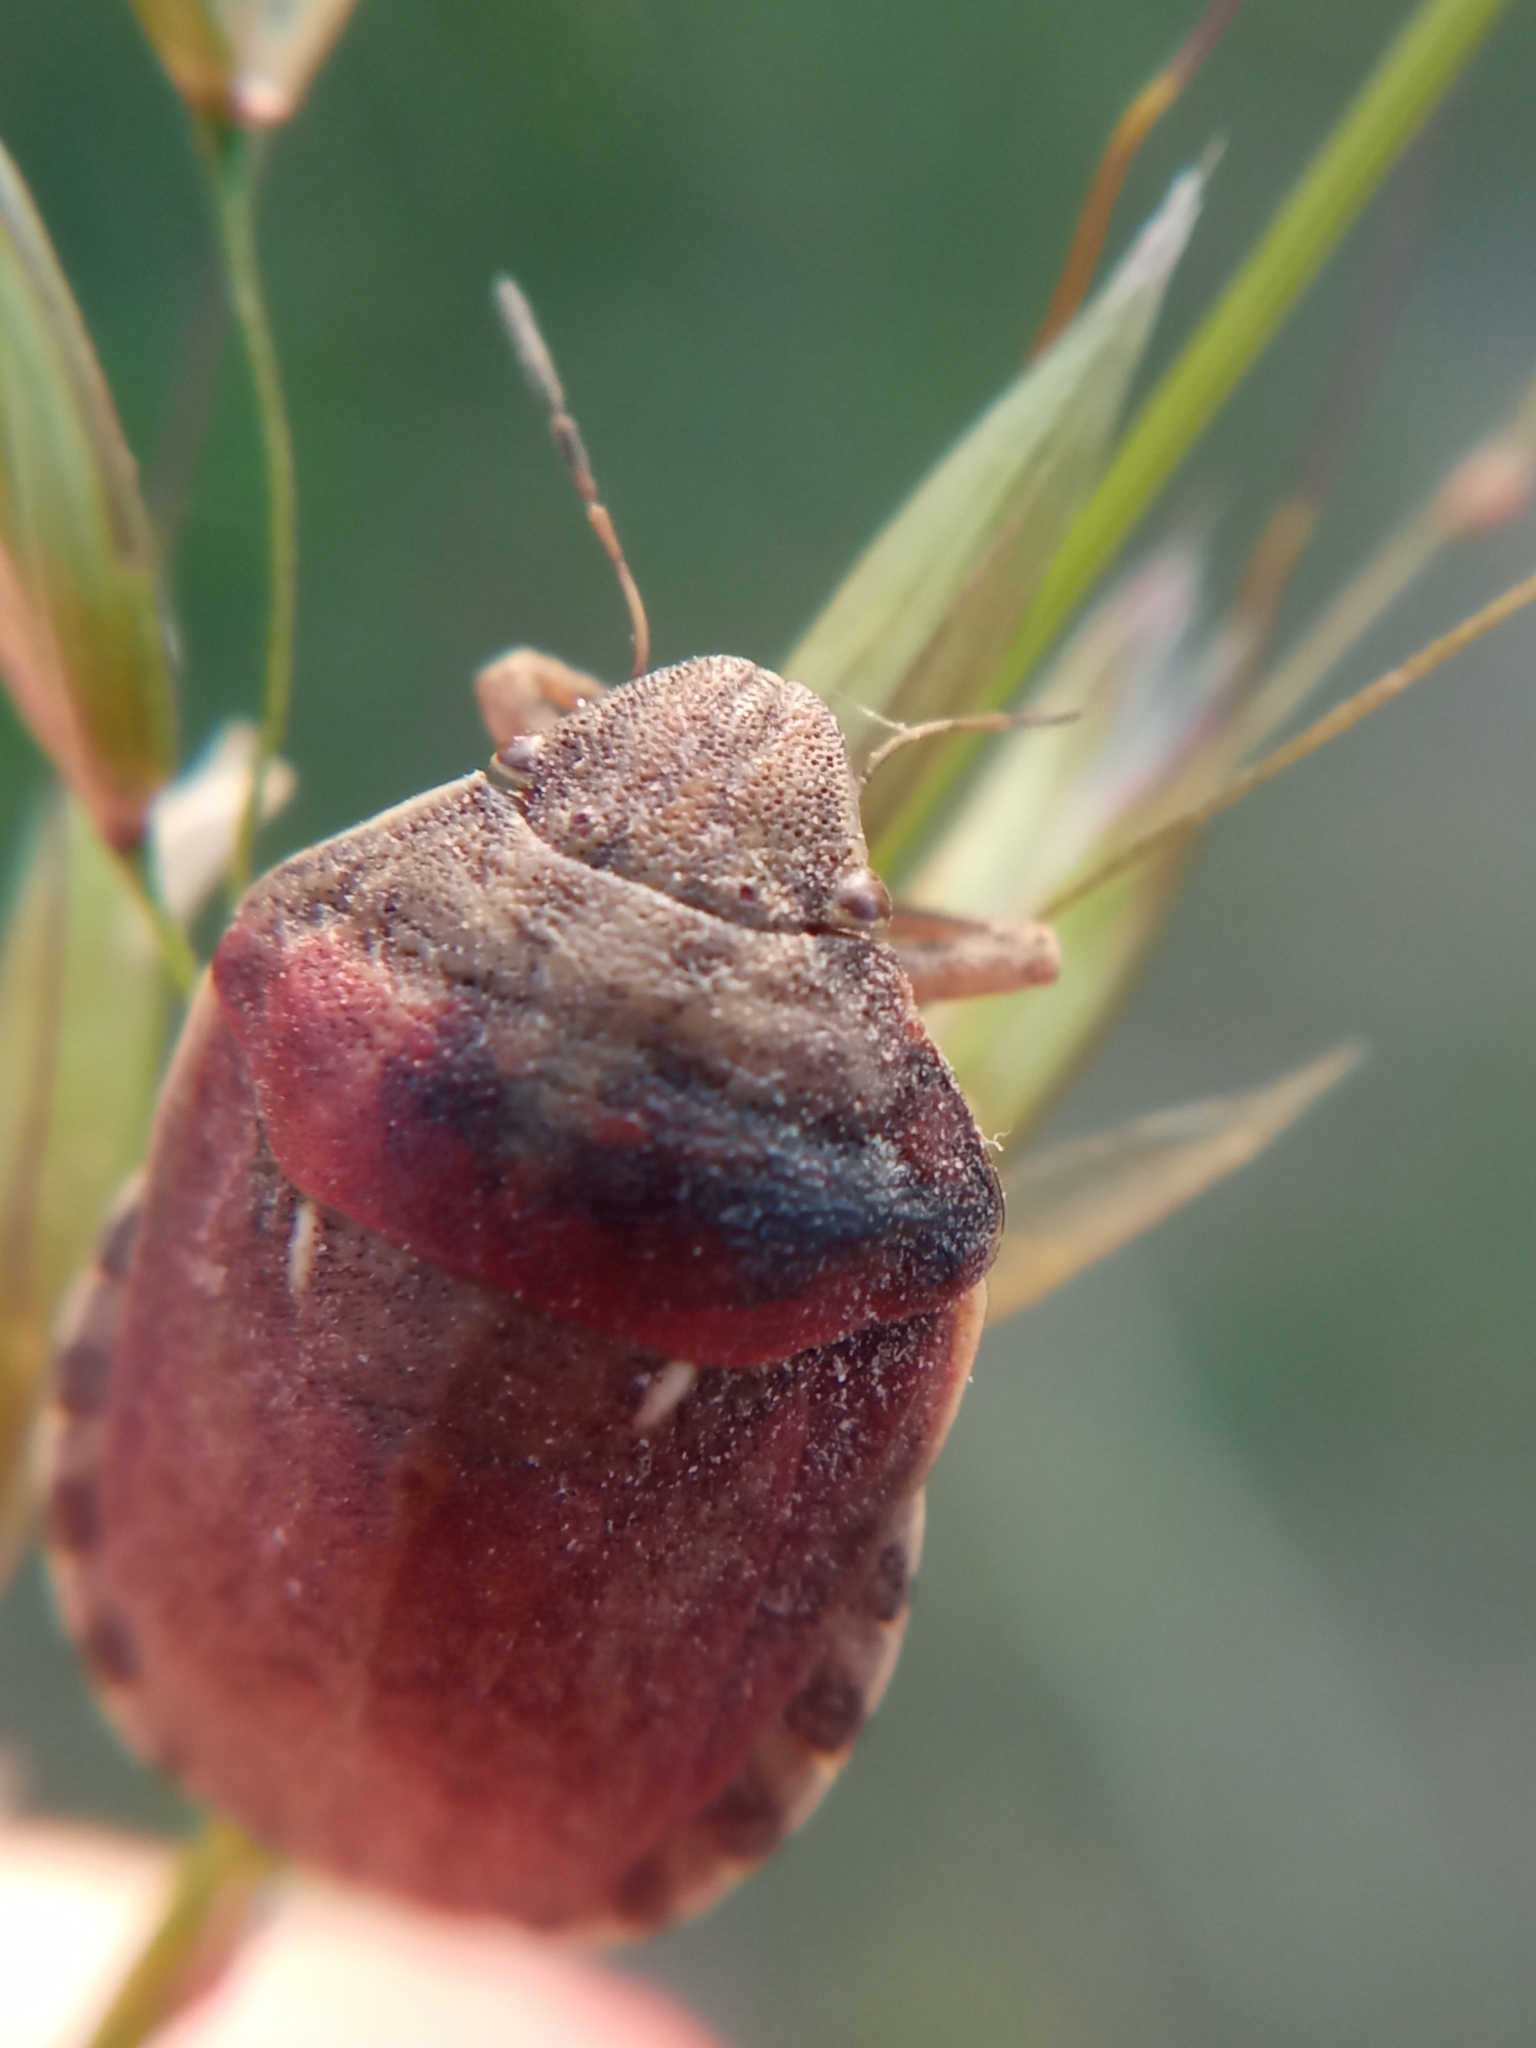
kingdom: Animalia
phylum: Arthropoda
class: Insecta
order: Hemiptera
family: Scutelleridae
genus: Eurygaster
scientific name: Eurygaster maura
